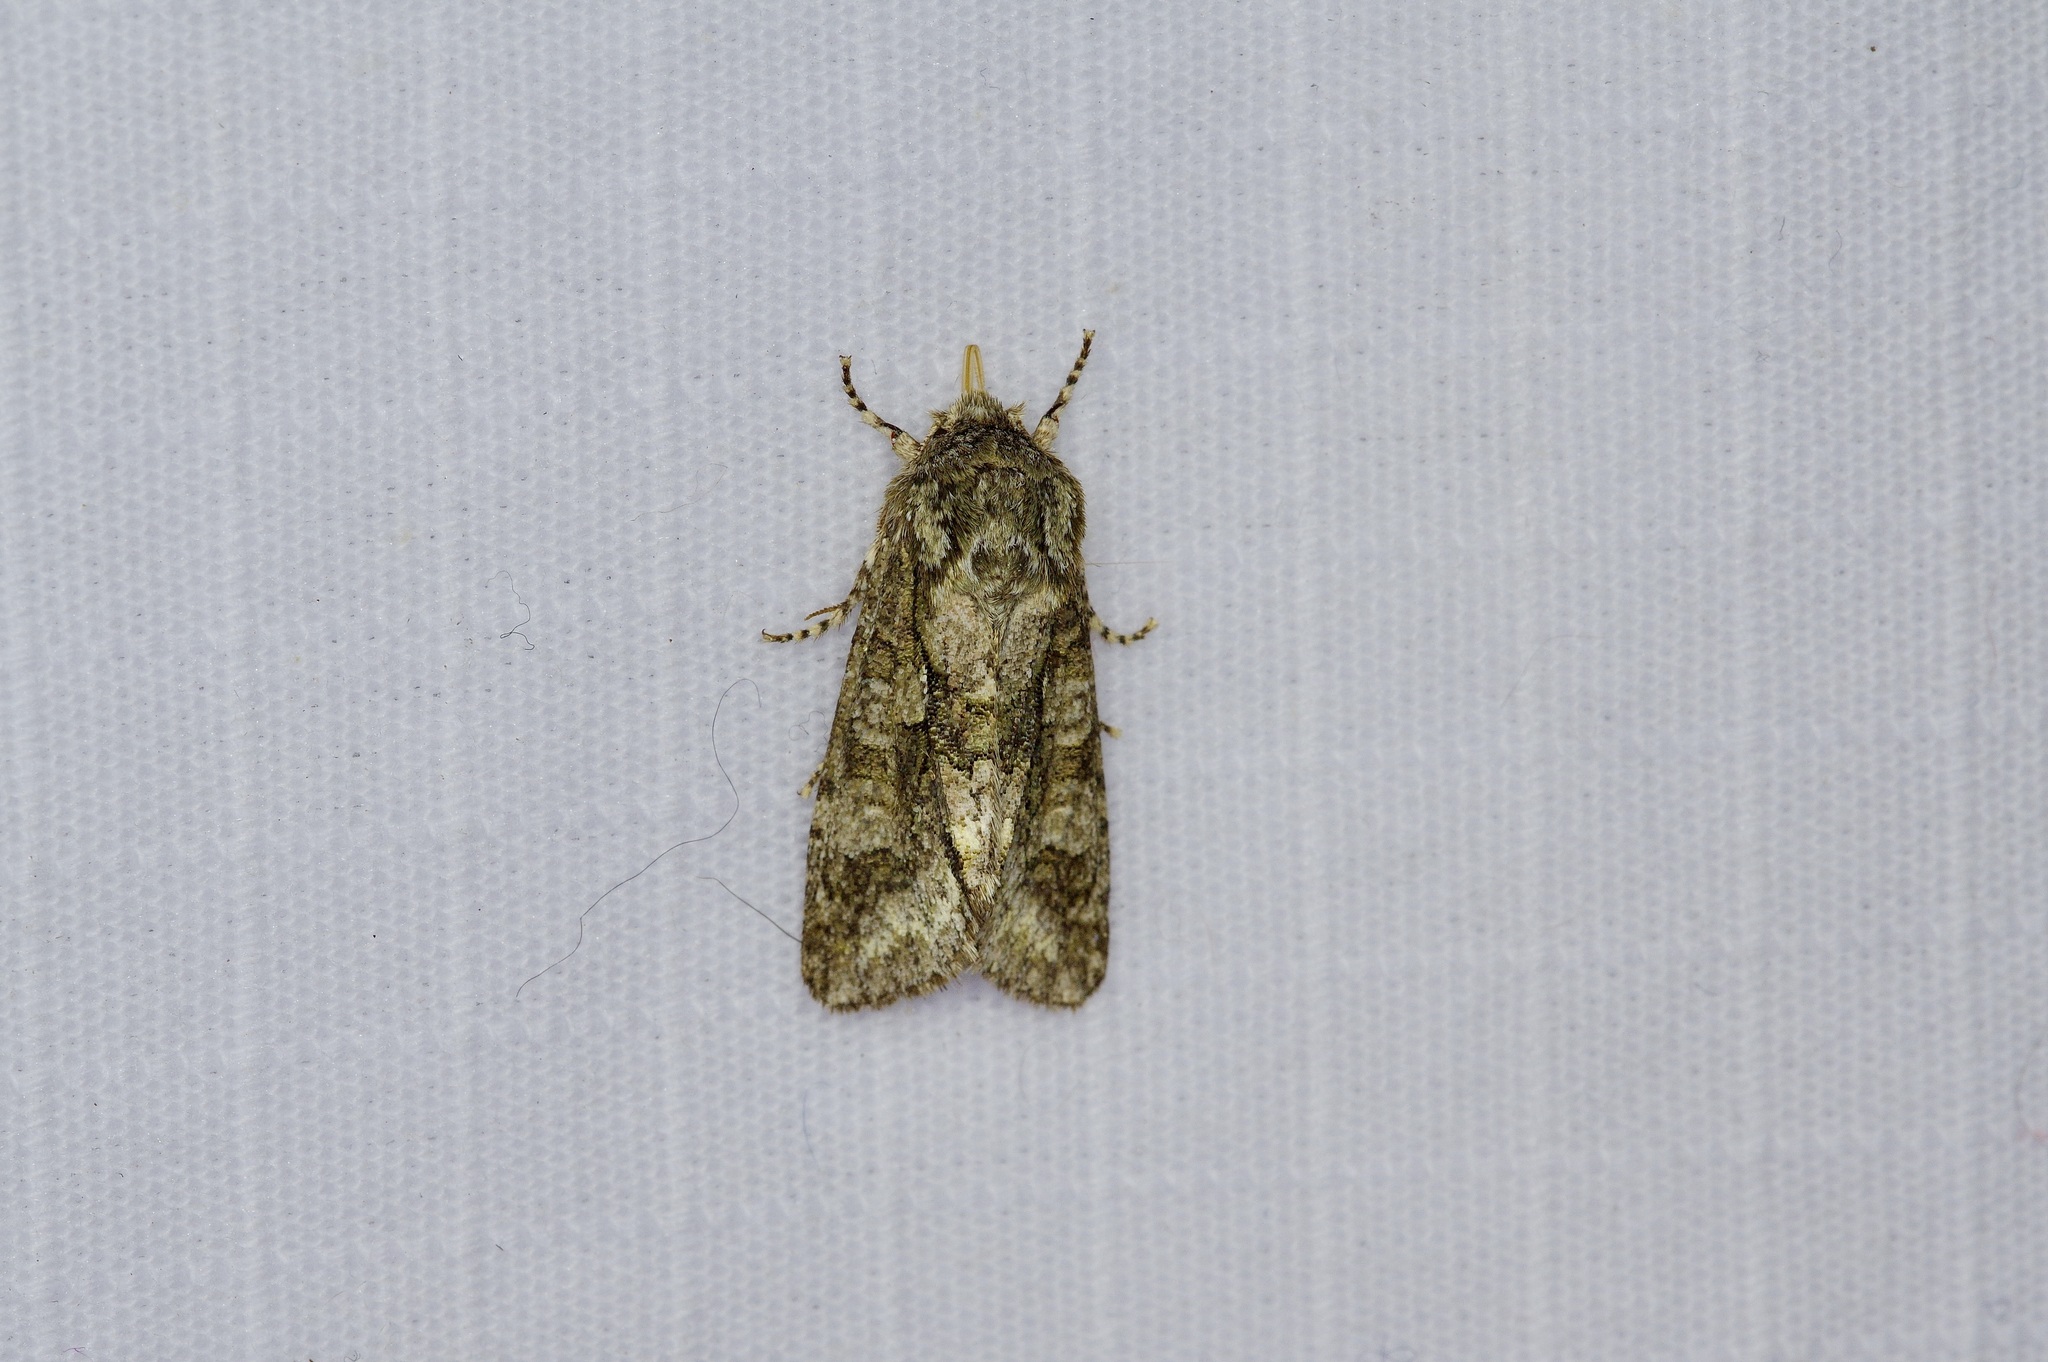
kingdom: Animalia
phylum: Arthropoda
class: Insecta
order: Lepidoptera
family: Noctuidae
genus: Psaphida
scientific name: Psaphida resumens
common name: Figure-eight sallow
